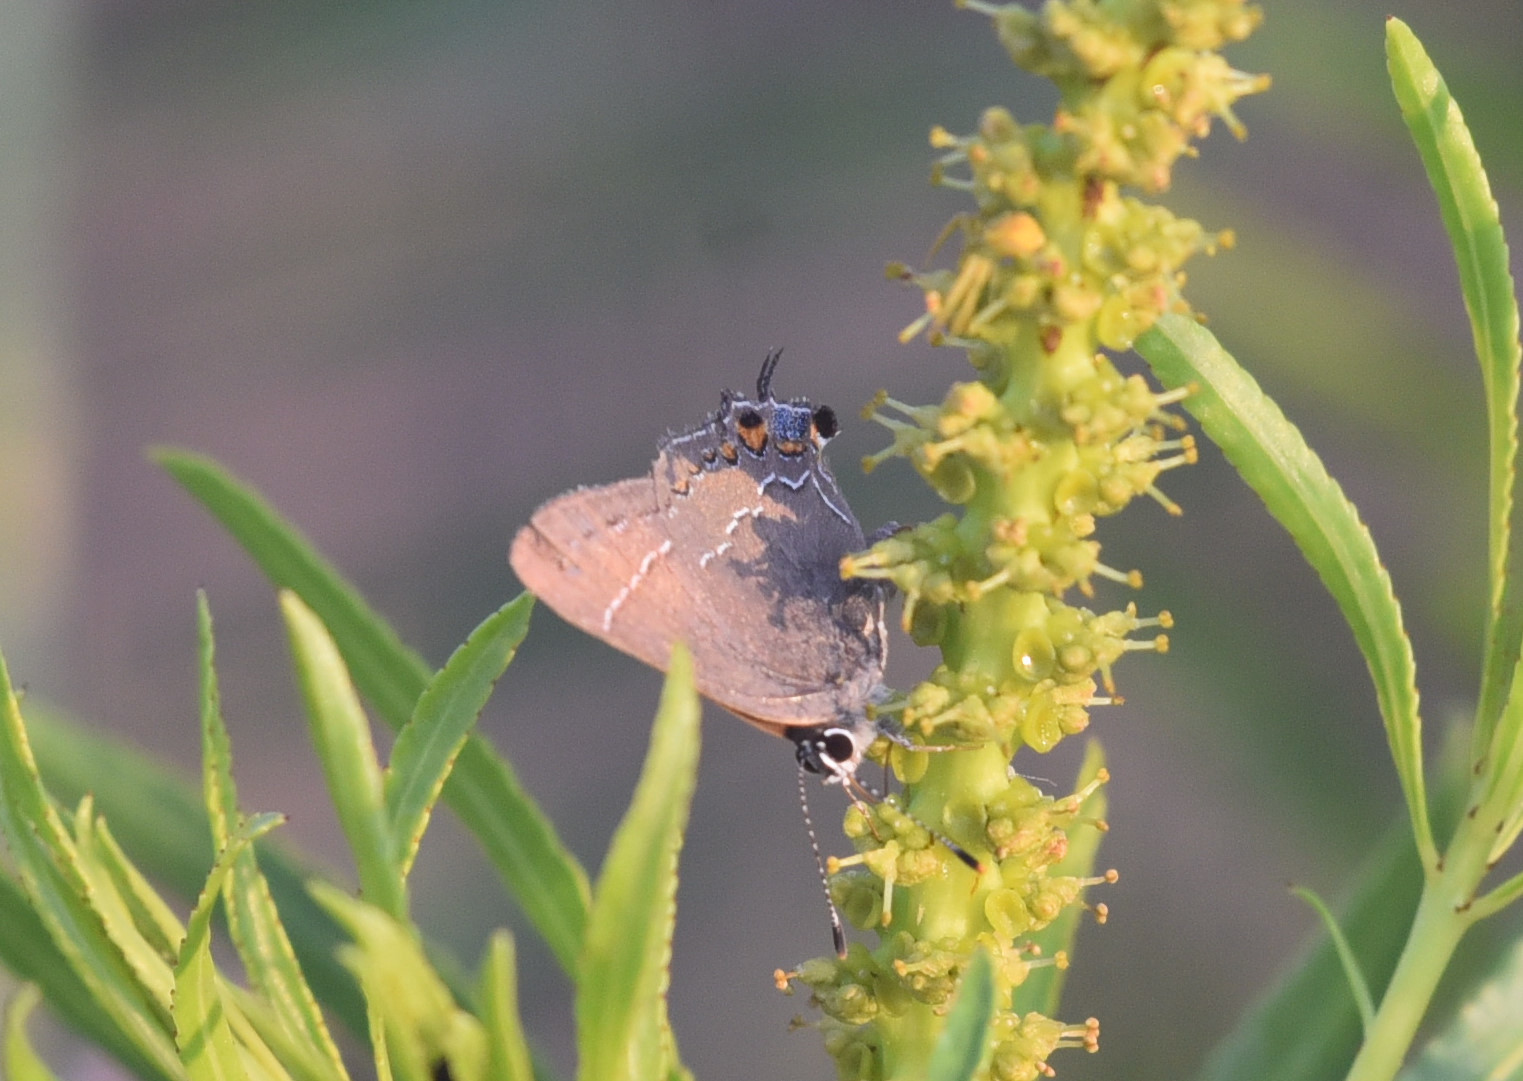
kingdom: Animalia
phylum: Arthropoda
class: Insecta
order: Lepidoptera
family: Lycaenidae
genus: Fixsenia
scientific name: Fixsenia favonius
